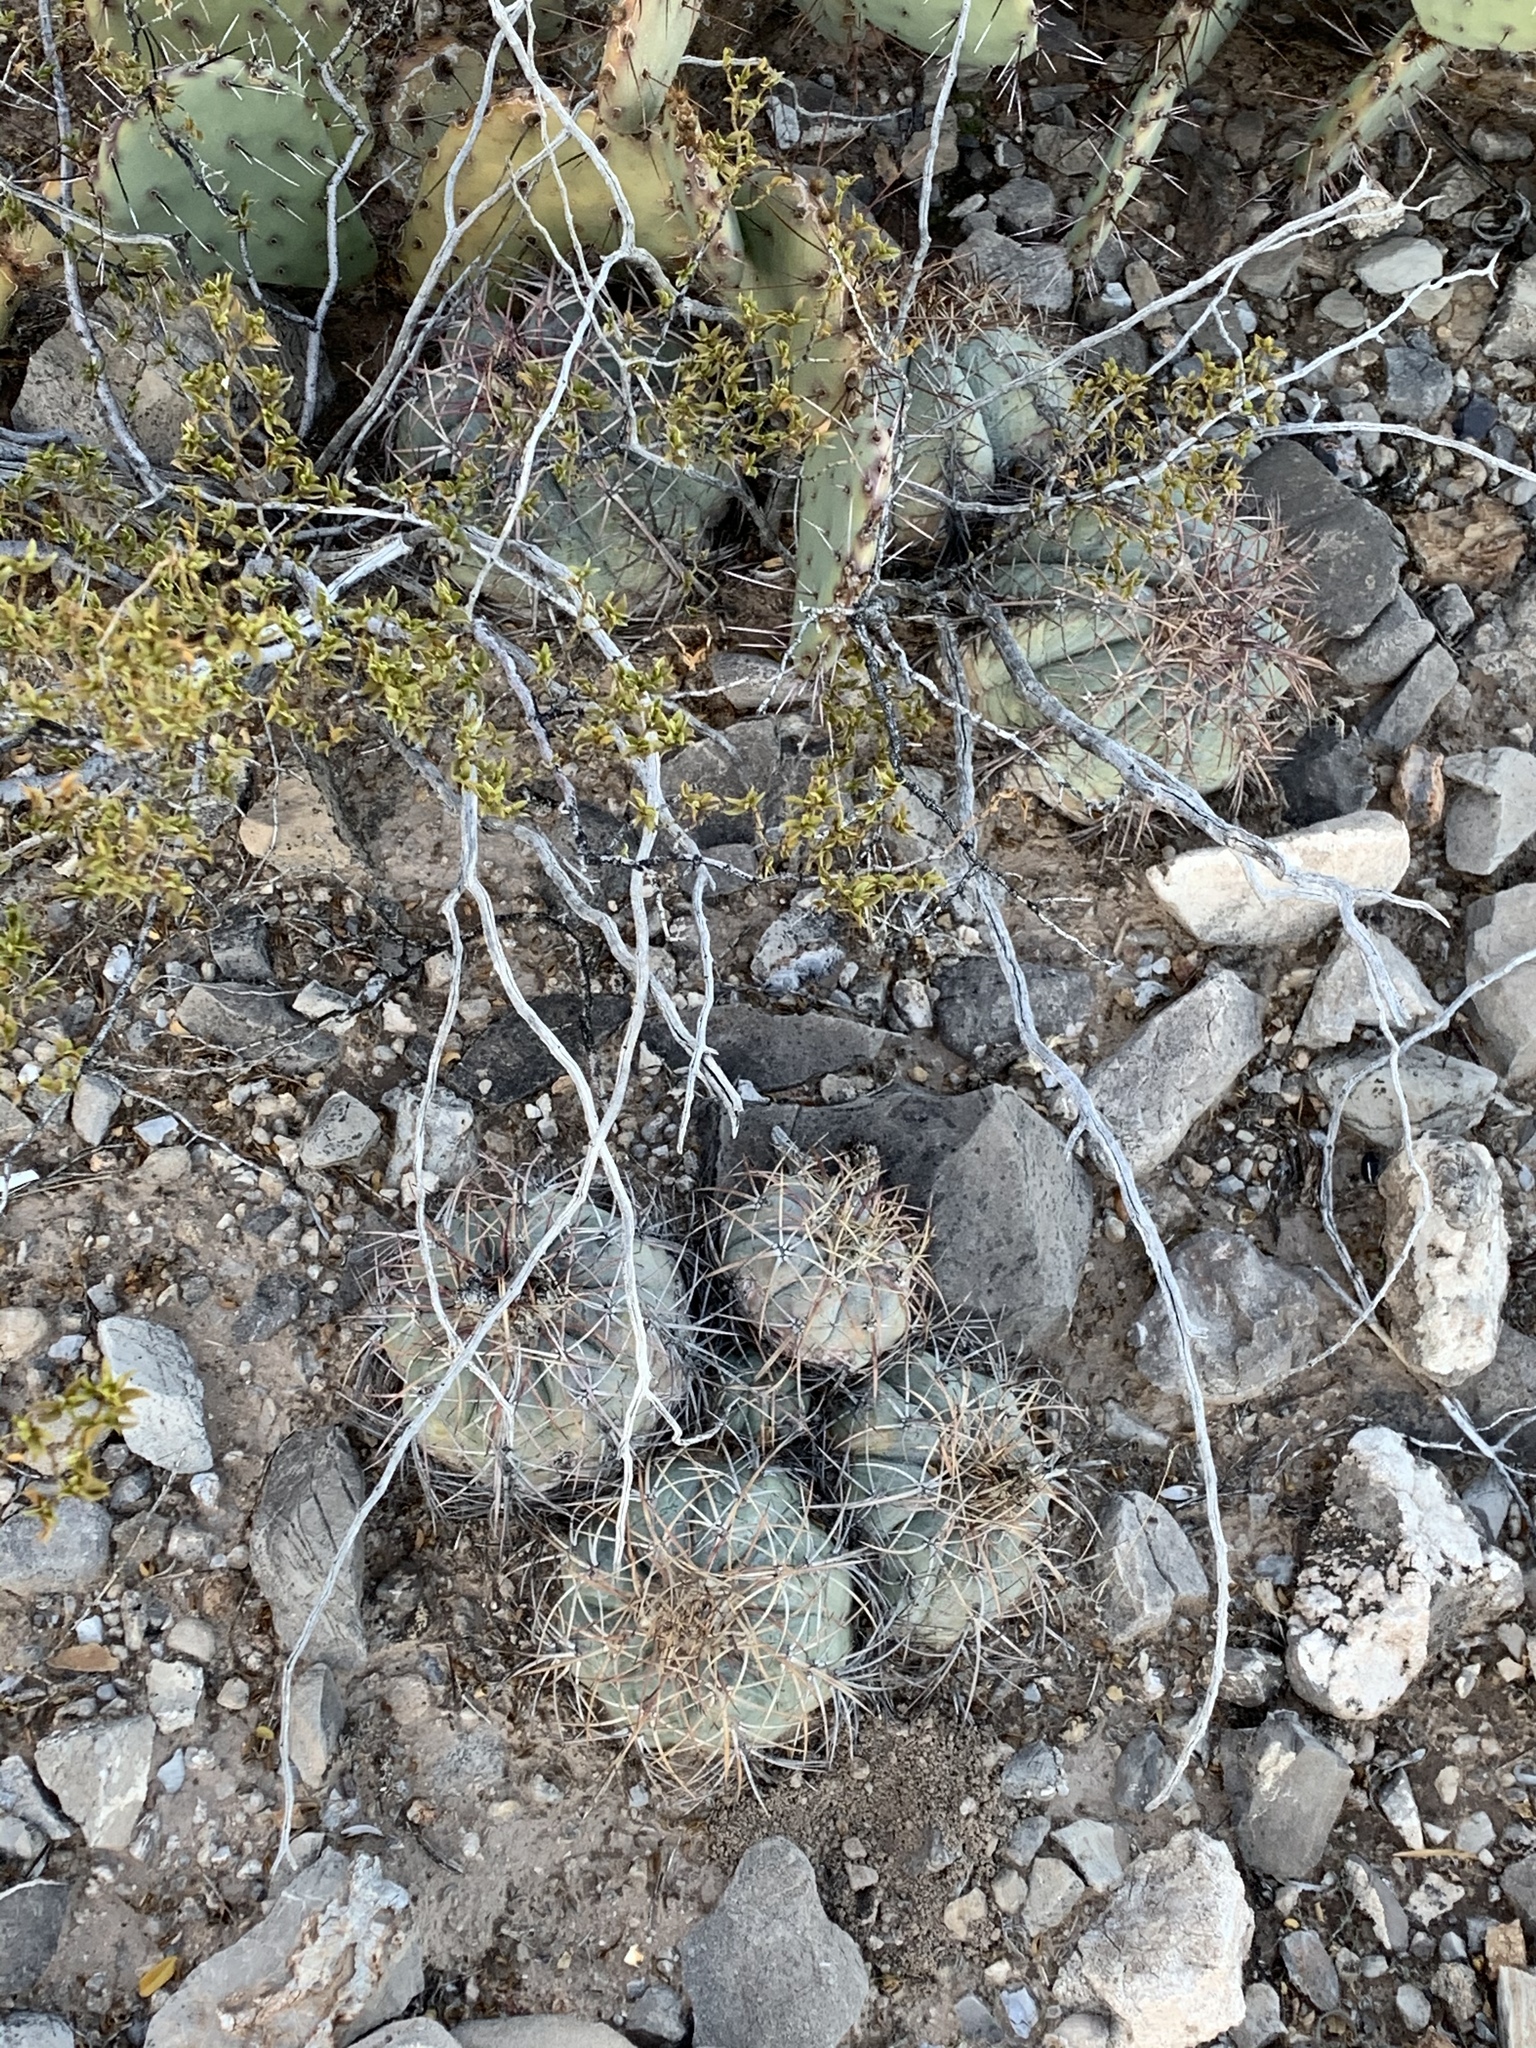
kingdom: Plantae
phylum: Tracheophyta
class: Magnoliopsida
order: Caryophyllales
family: Cactaceae
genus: Echinocactus
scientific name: Echinocactus horizonthalonius
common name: Devilshead
